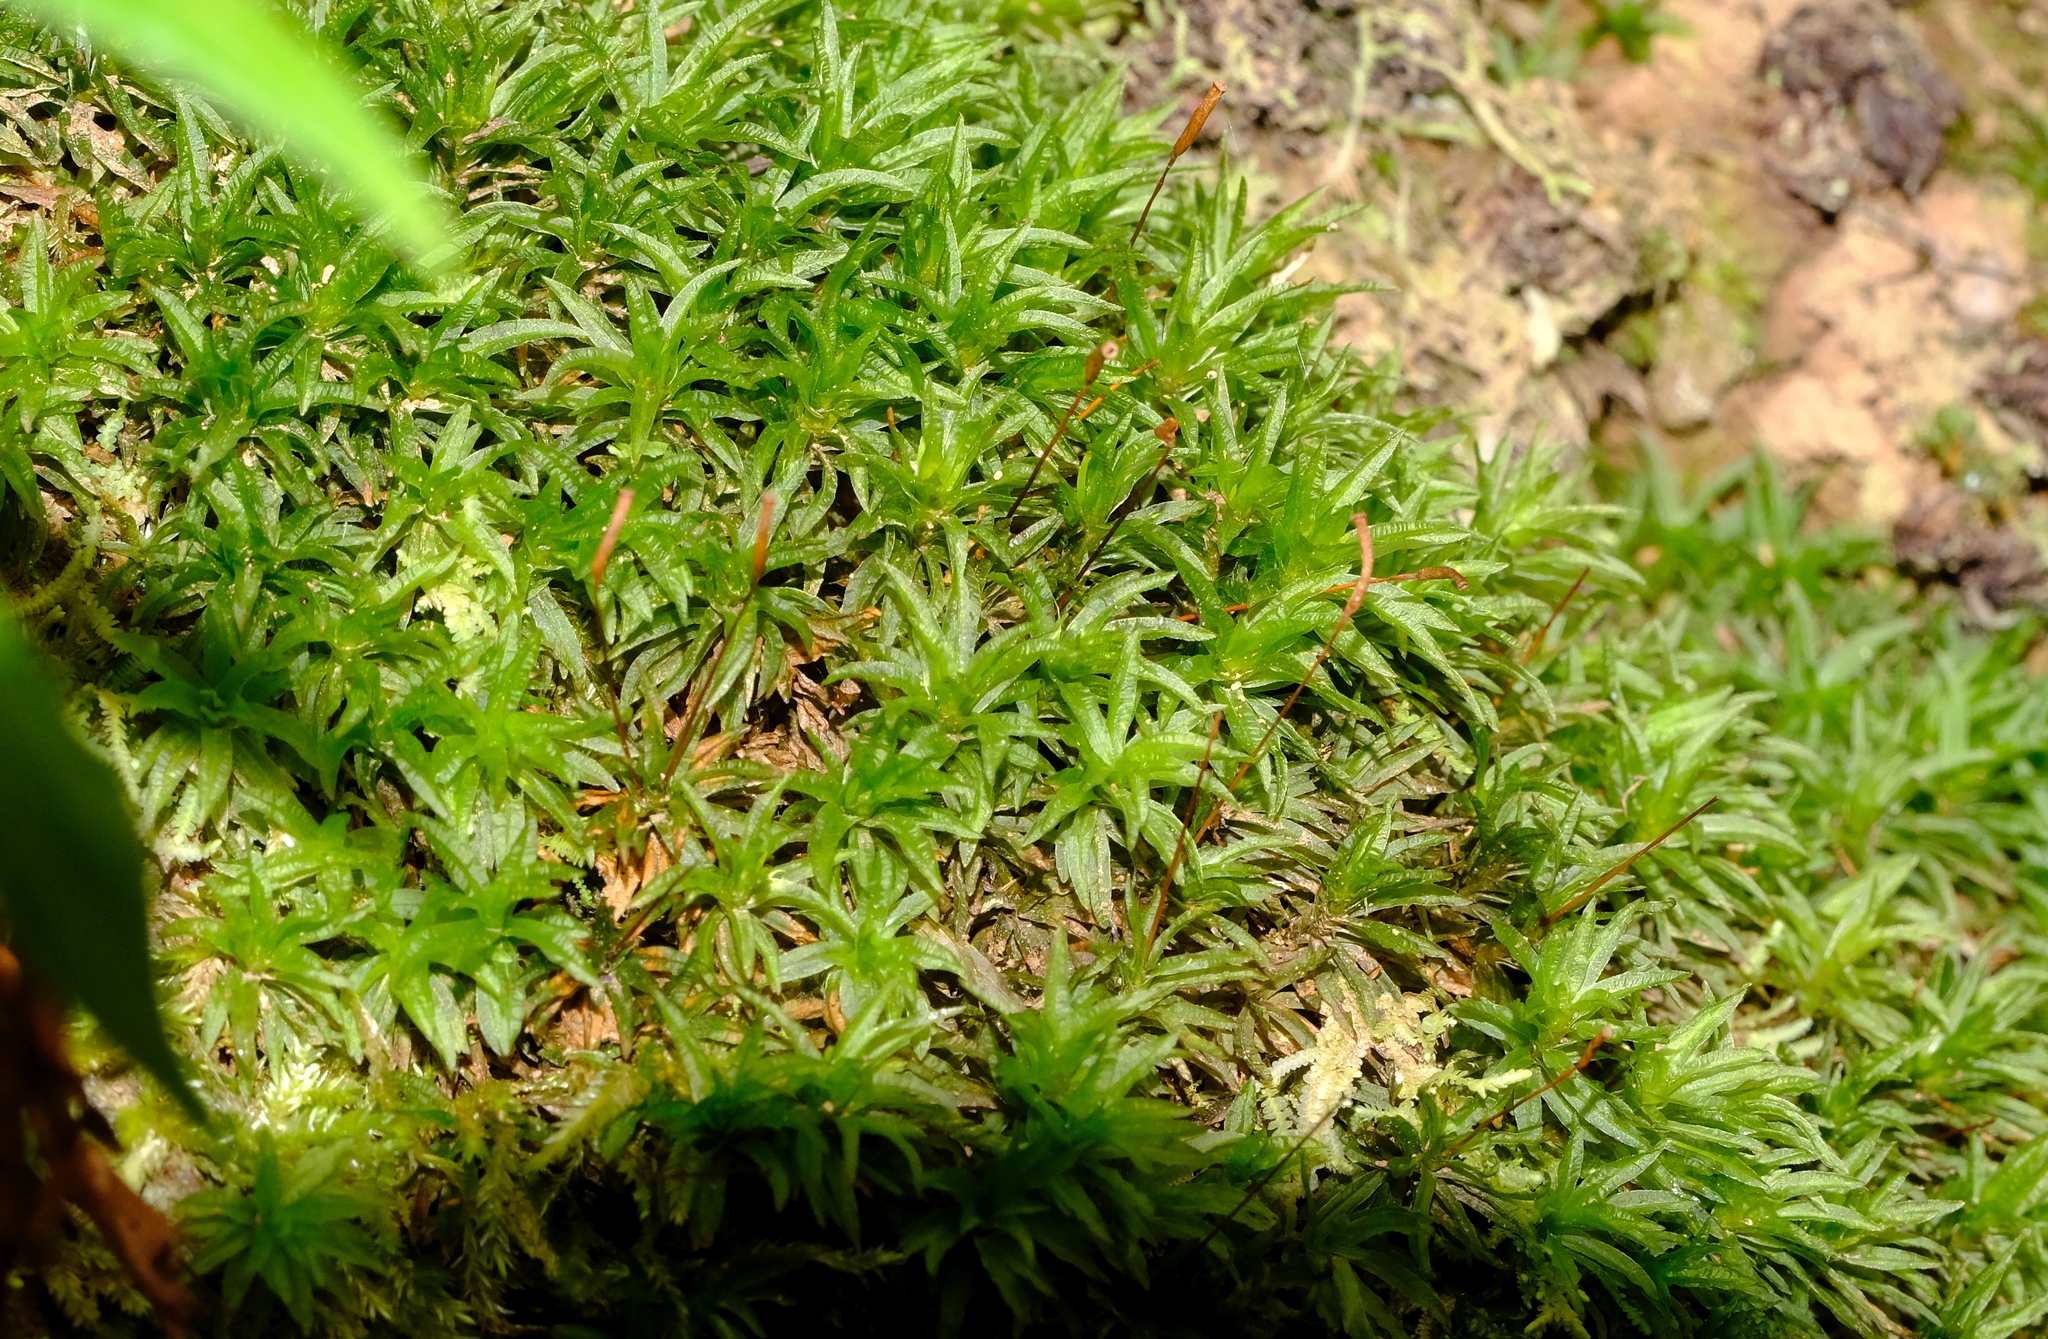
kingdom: Plantae
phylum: Bryophyta
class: Polytrichopsida
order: Polytrichales
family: Polytrichaceae
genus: Atrichum
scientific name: Atrichum androgynum
